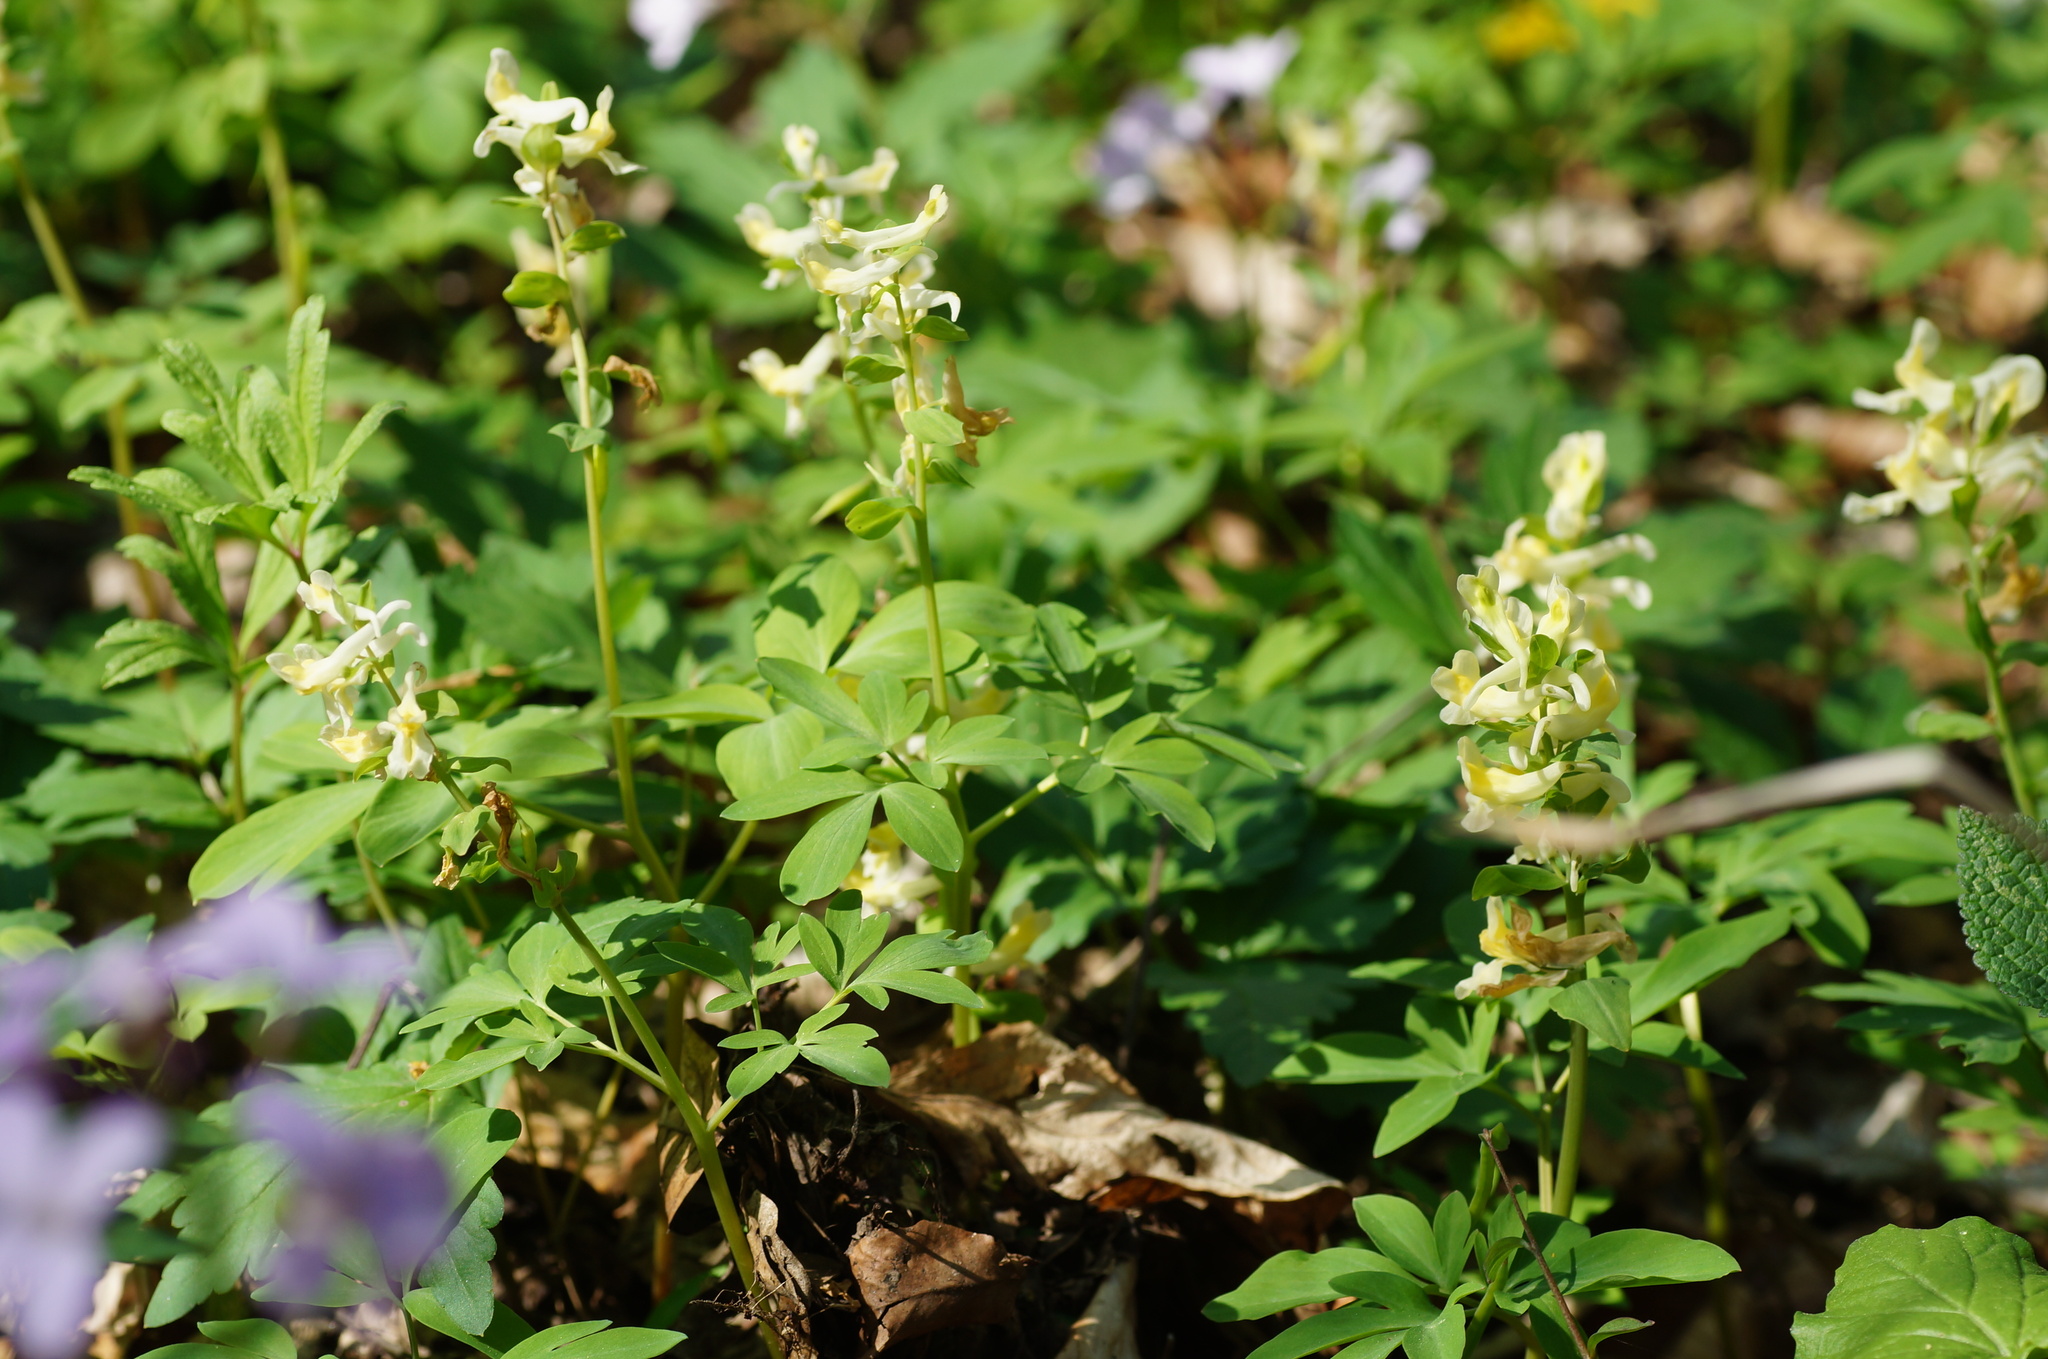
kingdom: Plantae
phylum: Tracheophyta
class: Magnoliopsida
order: Ranunculales
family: Papaveraceae
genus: Corydalis
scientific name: Corydalis cava
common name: Hollowroot
